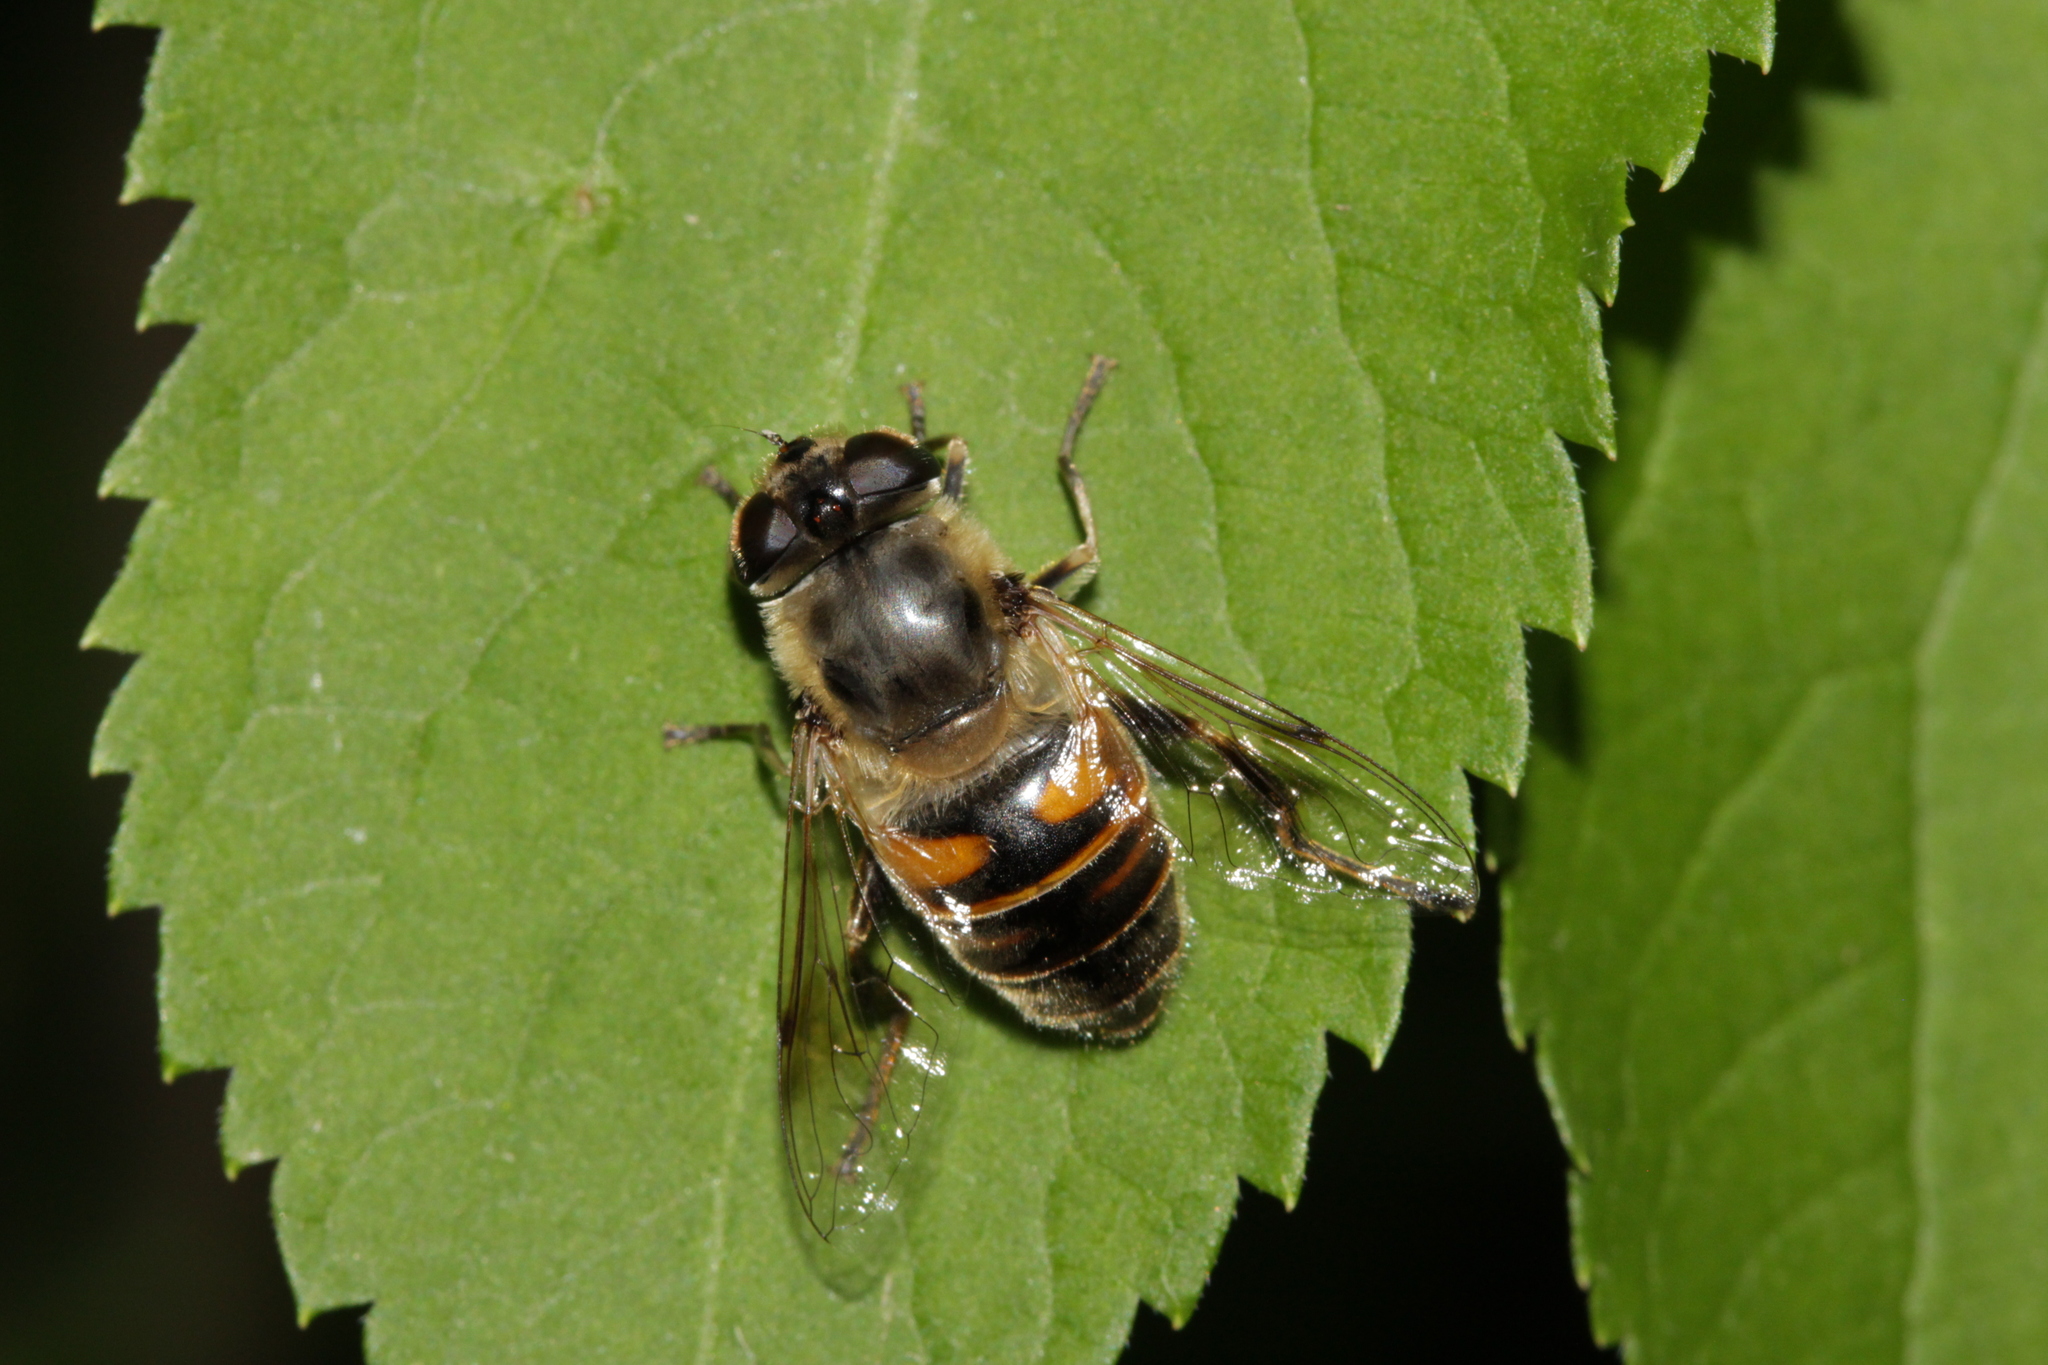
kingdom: Animalia
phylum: Arthropoda
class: Insecta
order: Diptera
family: Syrphidae
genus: Eristalis
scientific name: Eristalis tenax
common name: Drone fly
